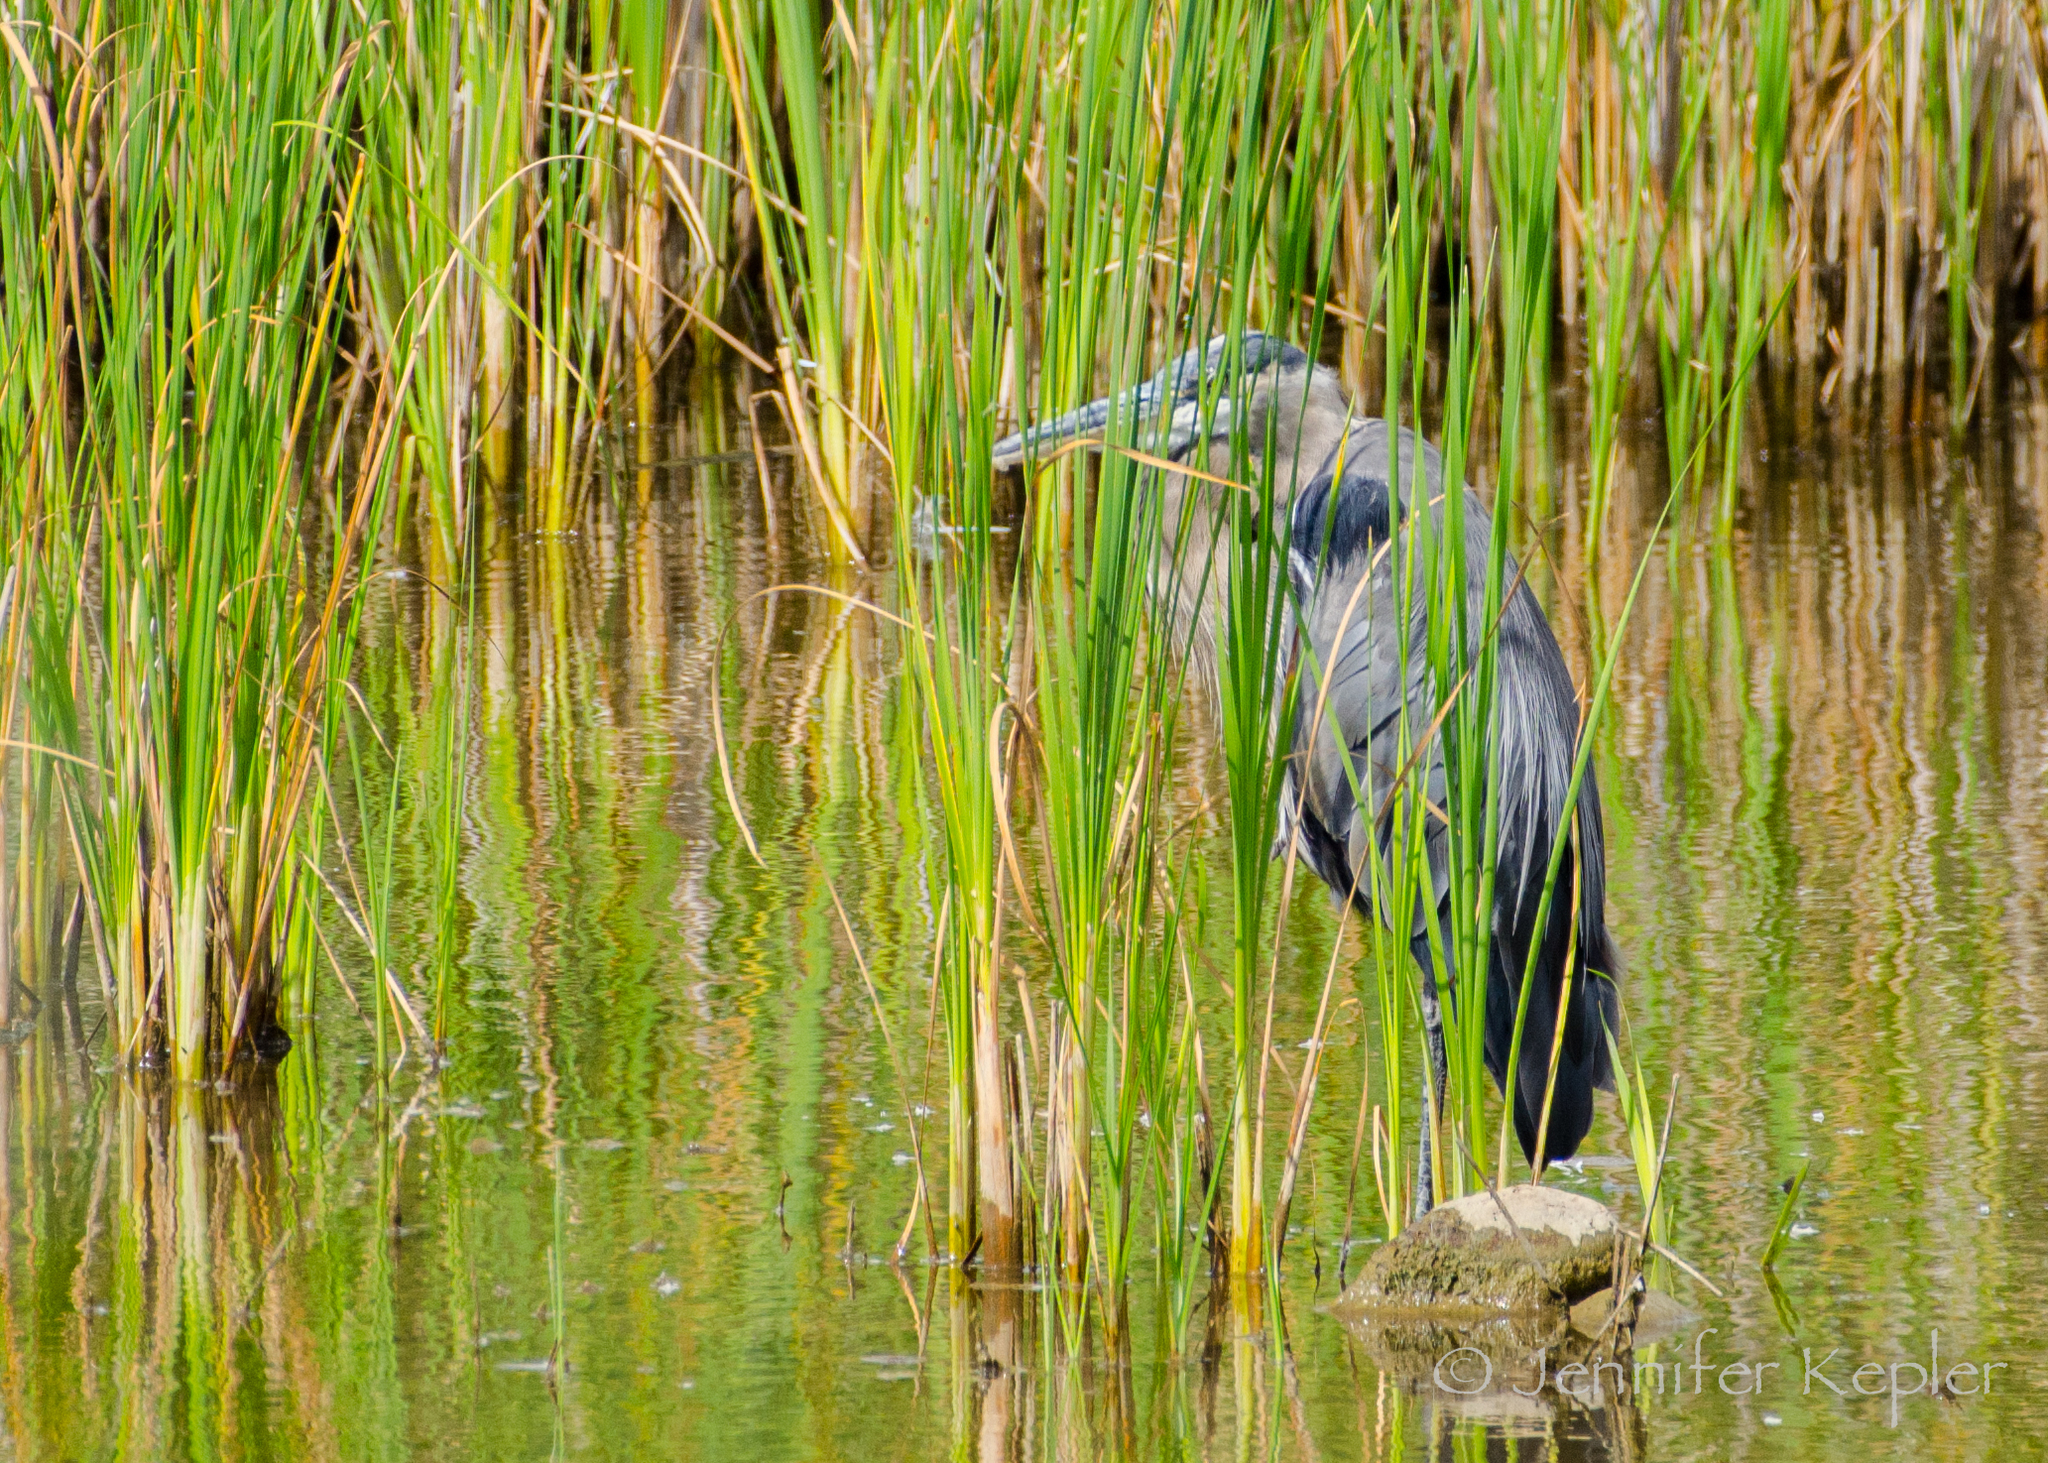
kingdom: Animalia
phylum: Chordata
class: Aves
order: Pelecaniformes
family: Ardeidae
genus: Ardea
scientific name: Ardea herodias
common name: Great blue heron
